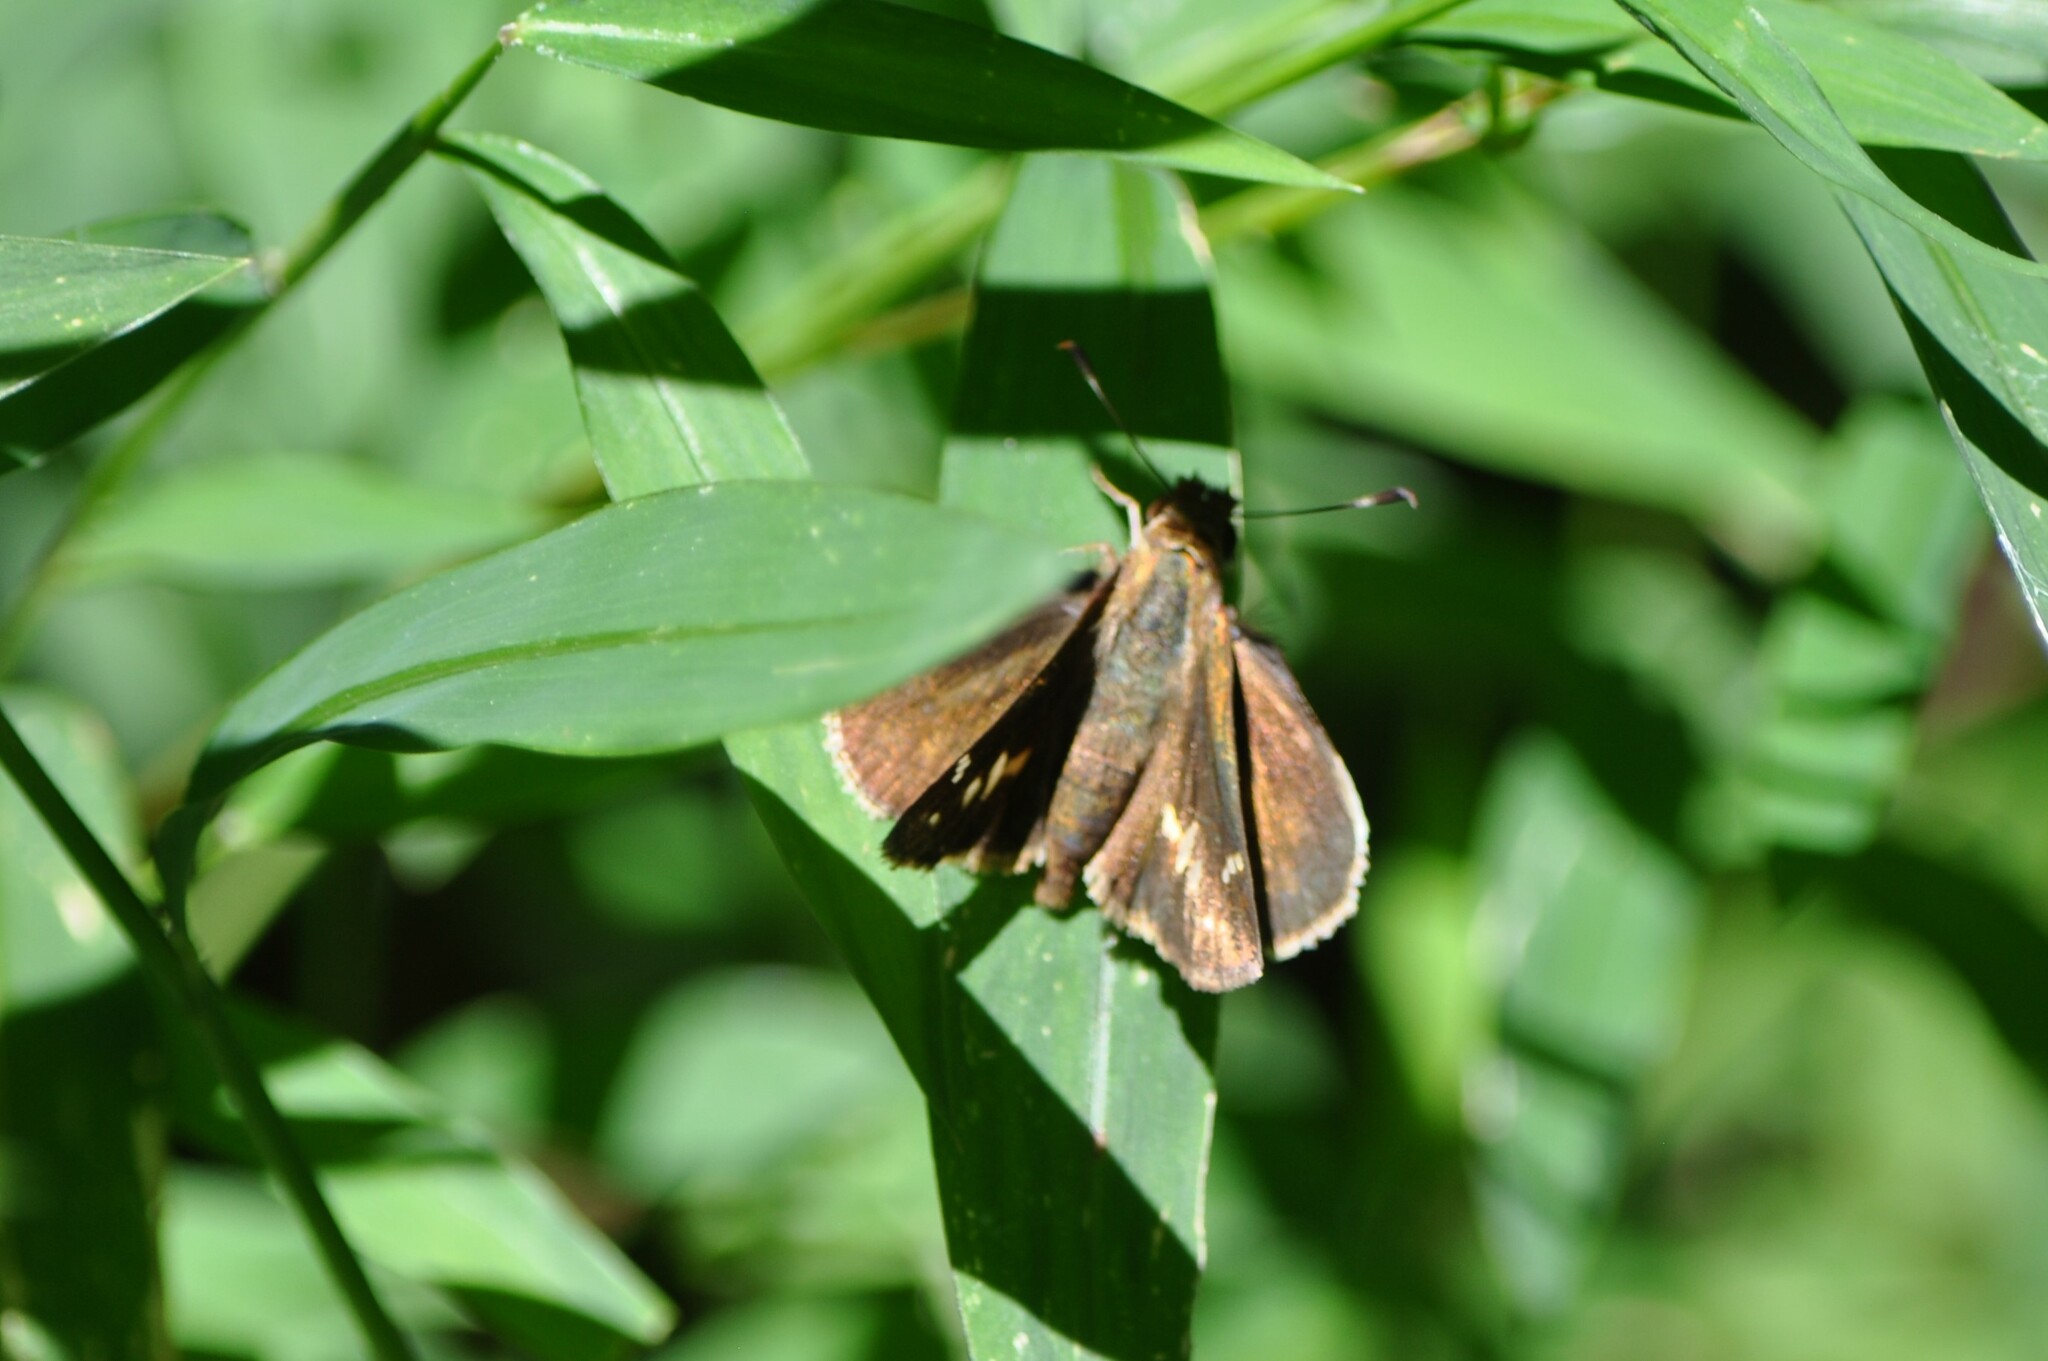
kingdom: Animalia
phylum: Arthropoda
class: Insecta
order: Lepidoptera
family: Hesperiidae
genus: Lon
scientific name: Lon zabulon
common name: Zabulon skipper
